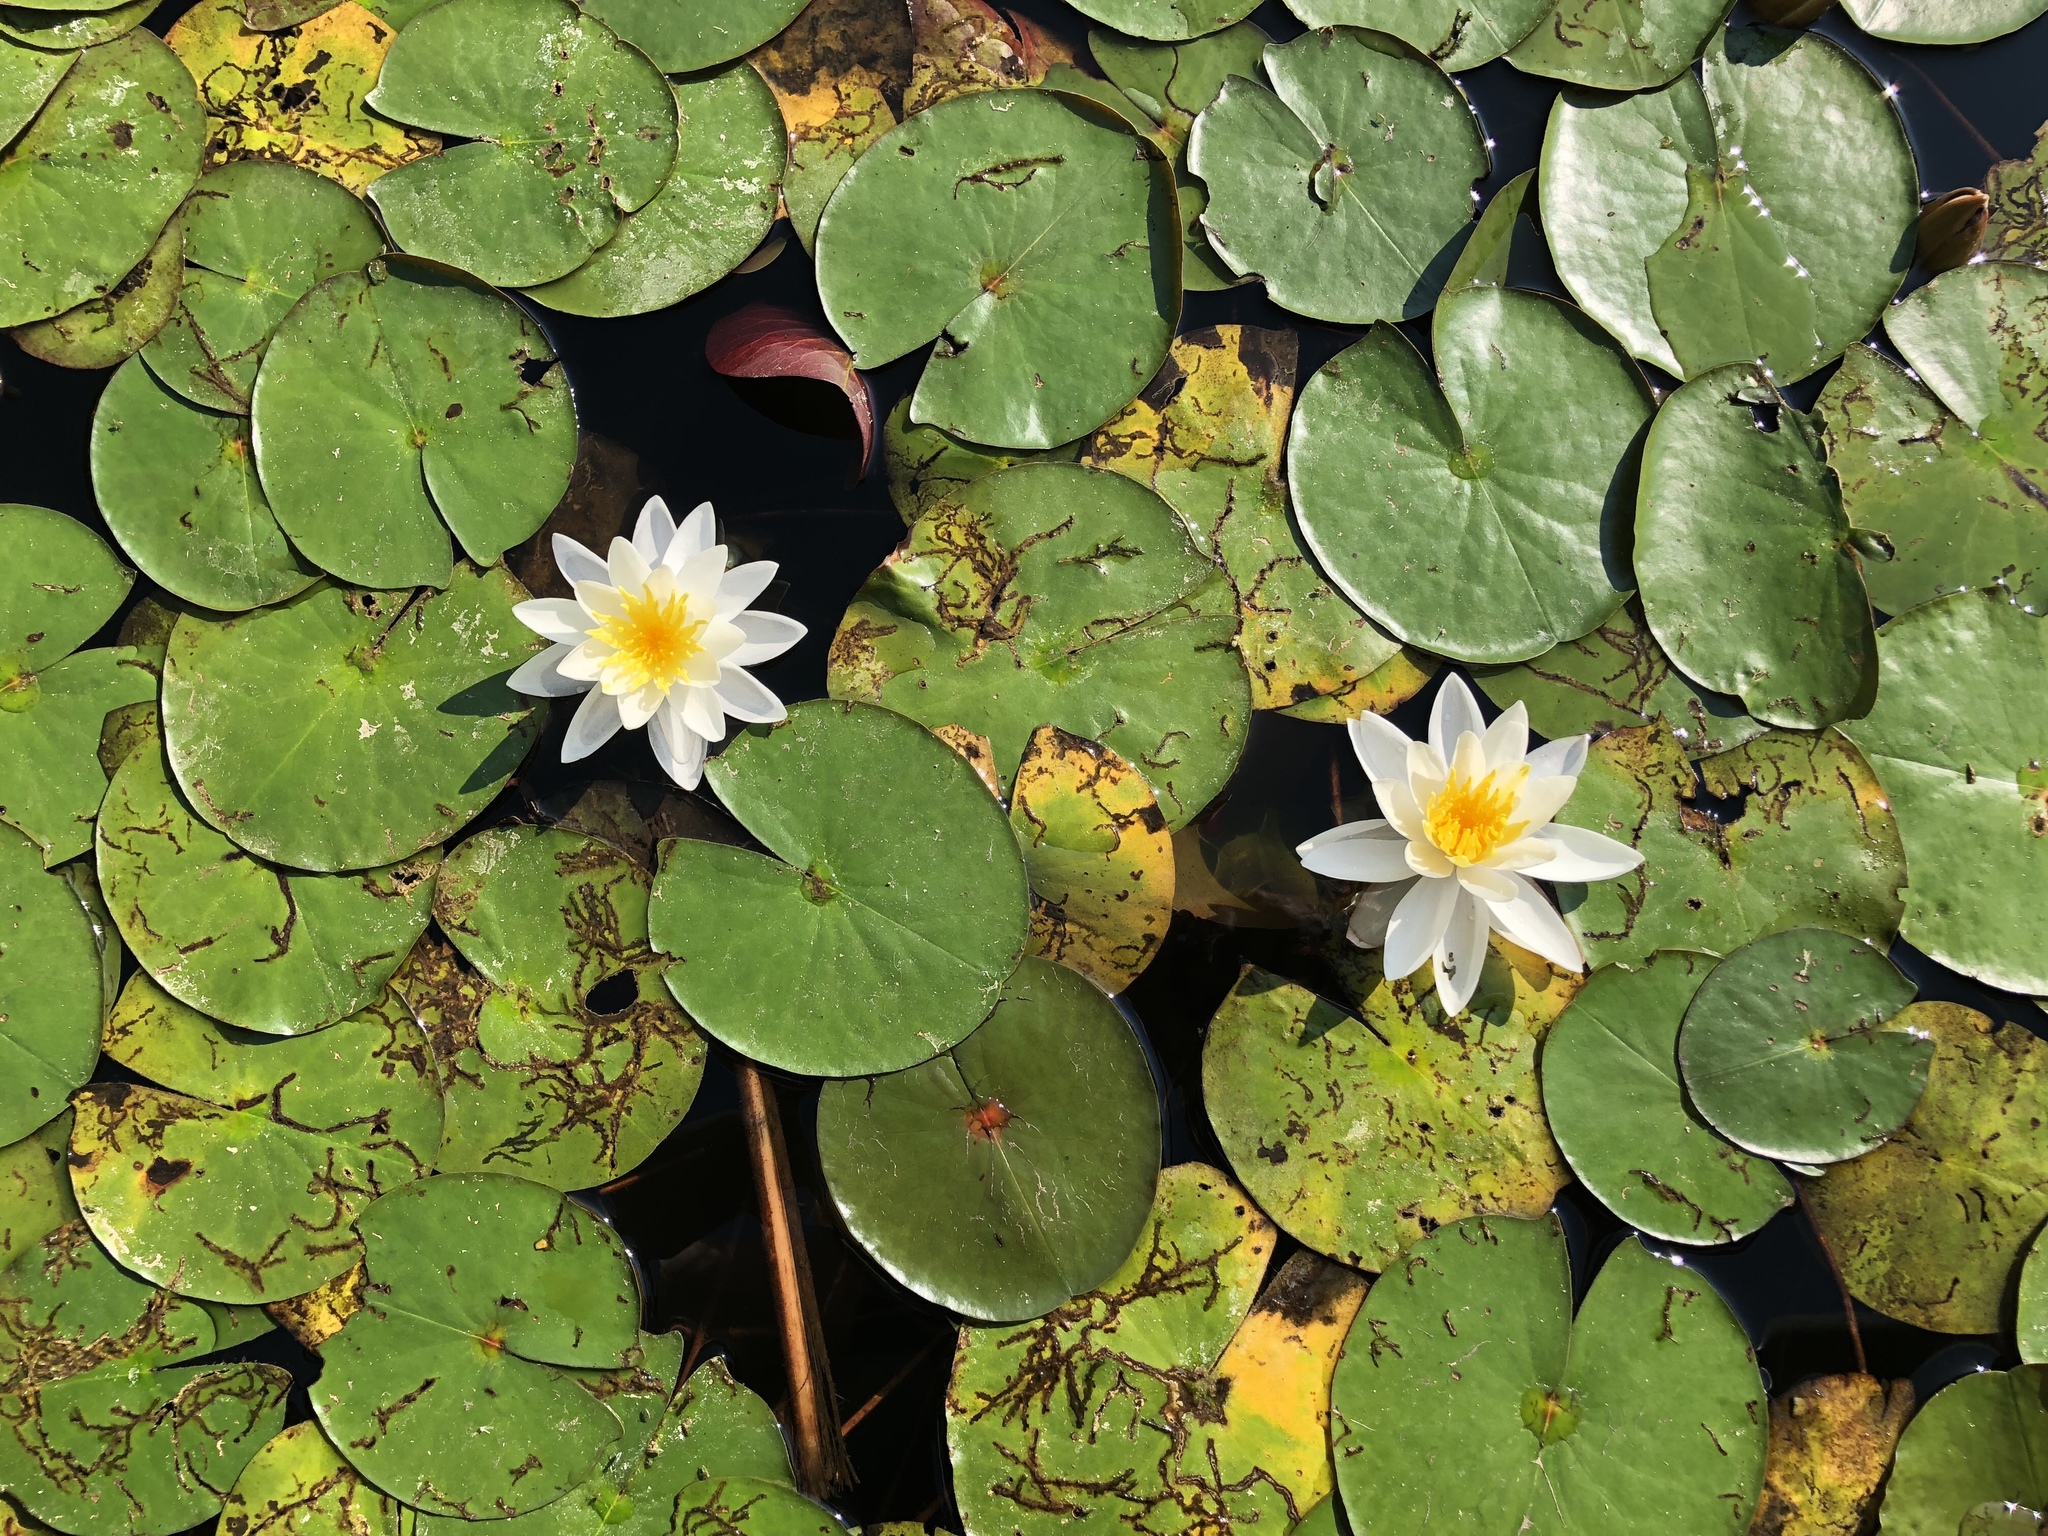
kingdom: Plantae
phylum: Tracheophyta
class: Magnoliopsida
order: Nymphaeales
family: Nymphaeaceae
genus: Nymphaea
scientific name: Nymphaea odorata
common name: Fragrant water-lily
